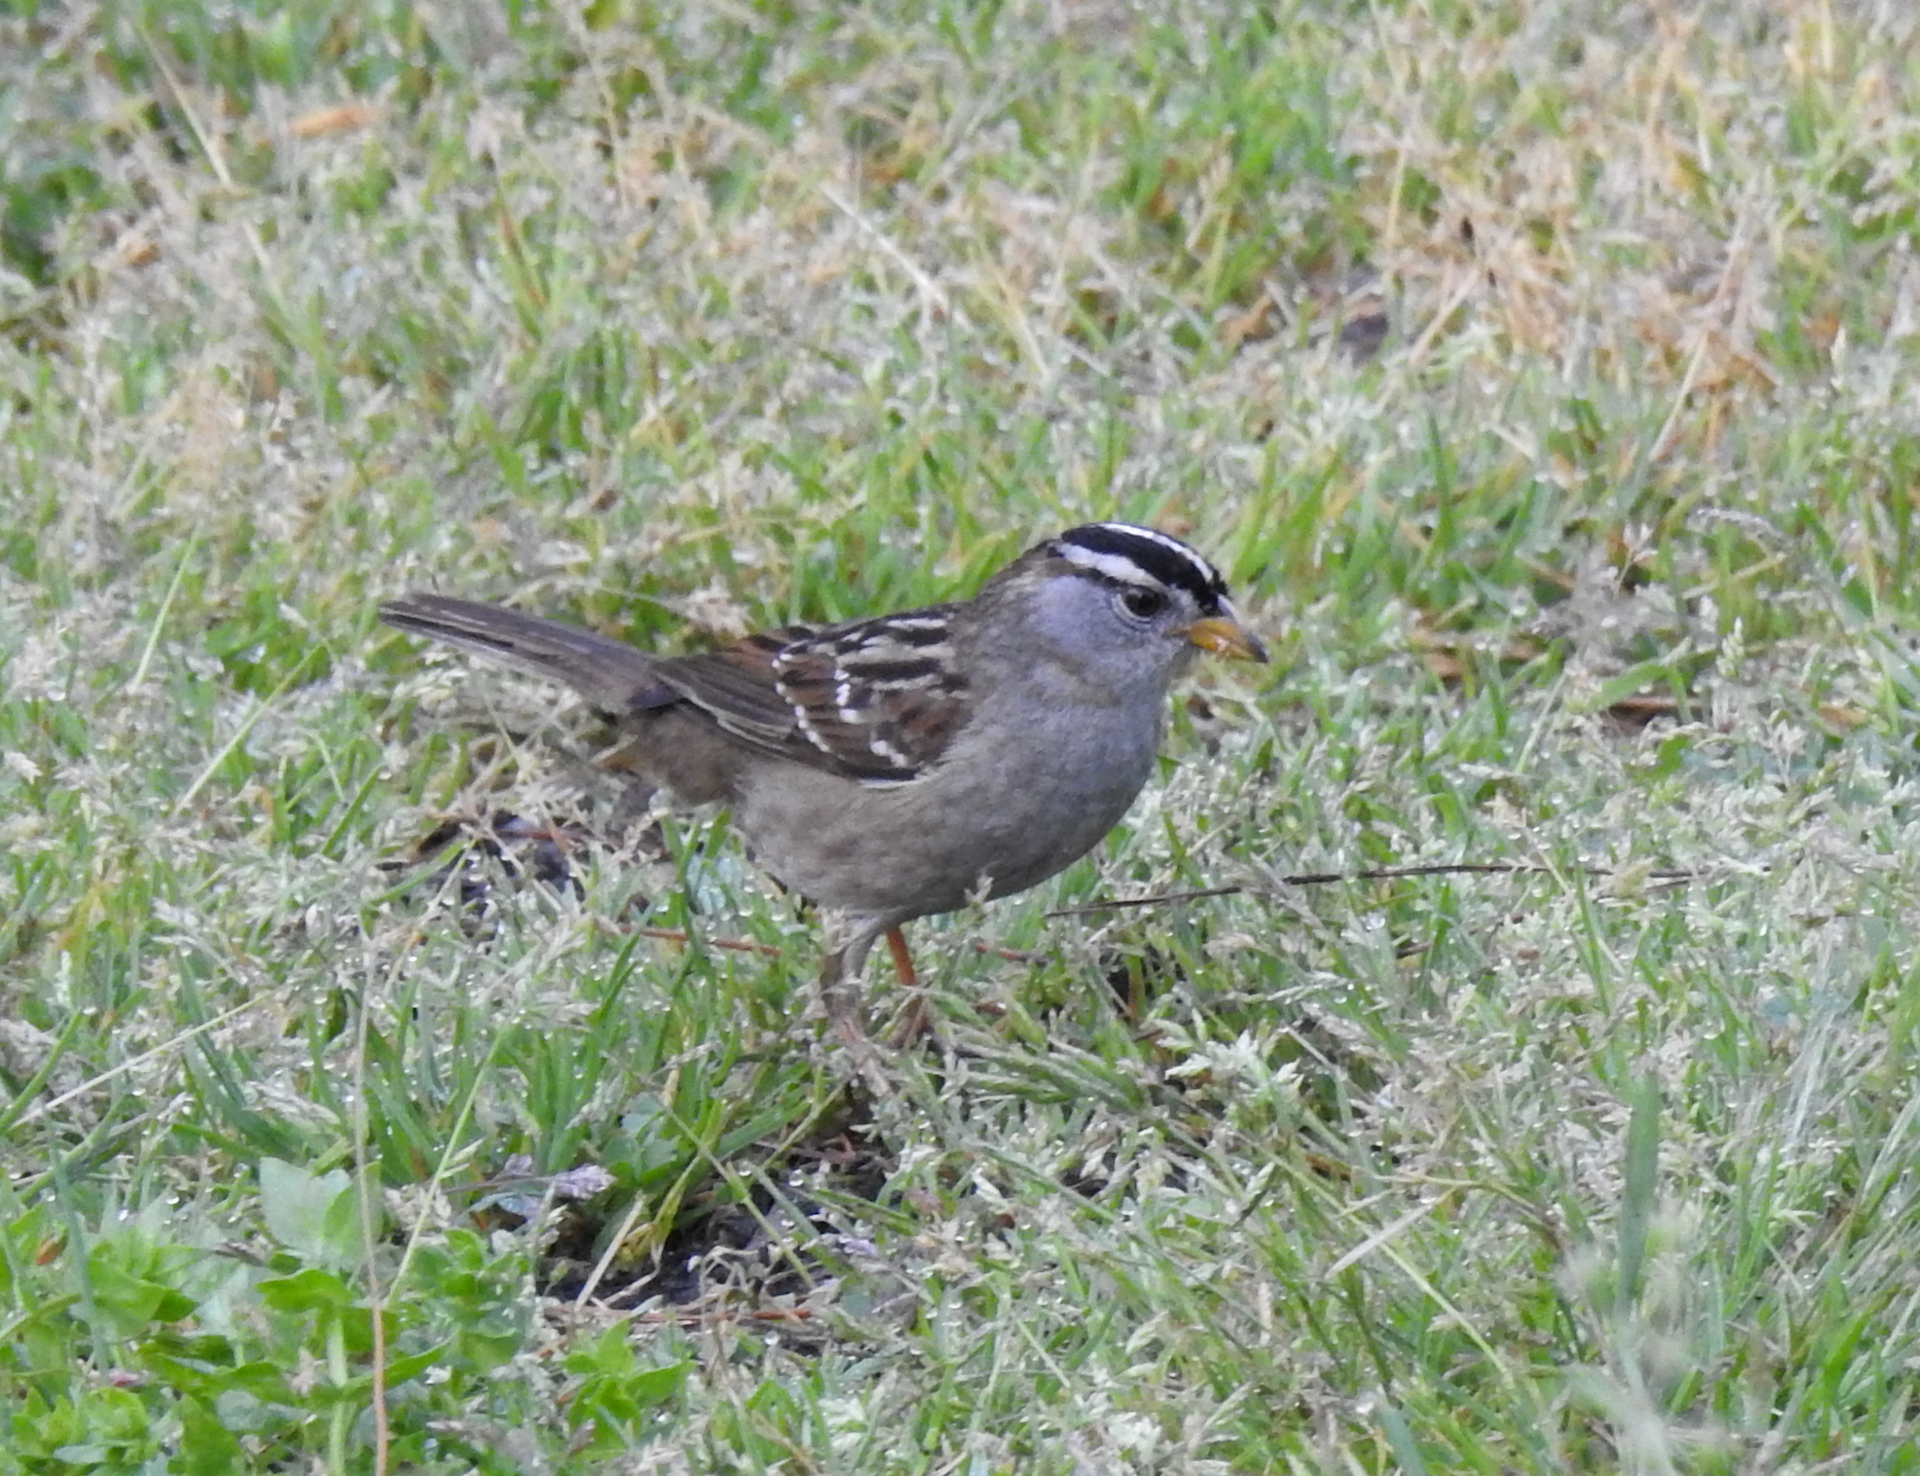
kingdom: Animalia
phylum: Chordata
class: Aves
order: Passeriformes
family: Passerellidae
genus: Zonotrichia
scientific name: Zonotrichia leucophrys
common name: White-crowned sparrow
